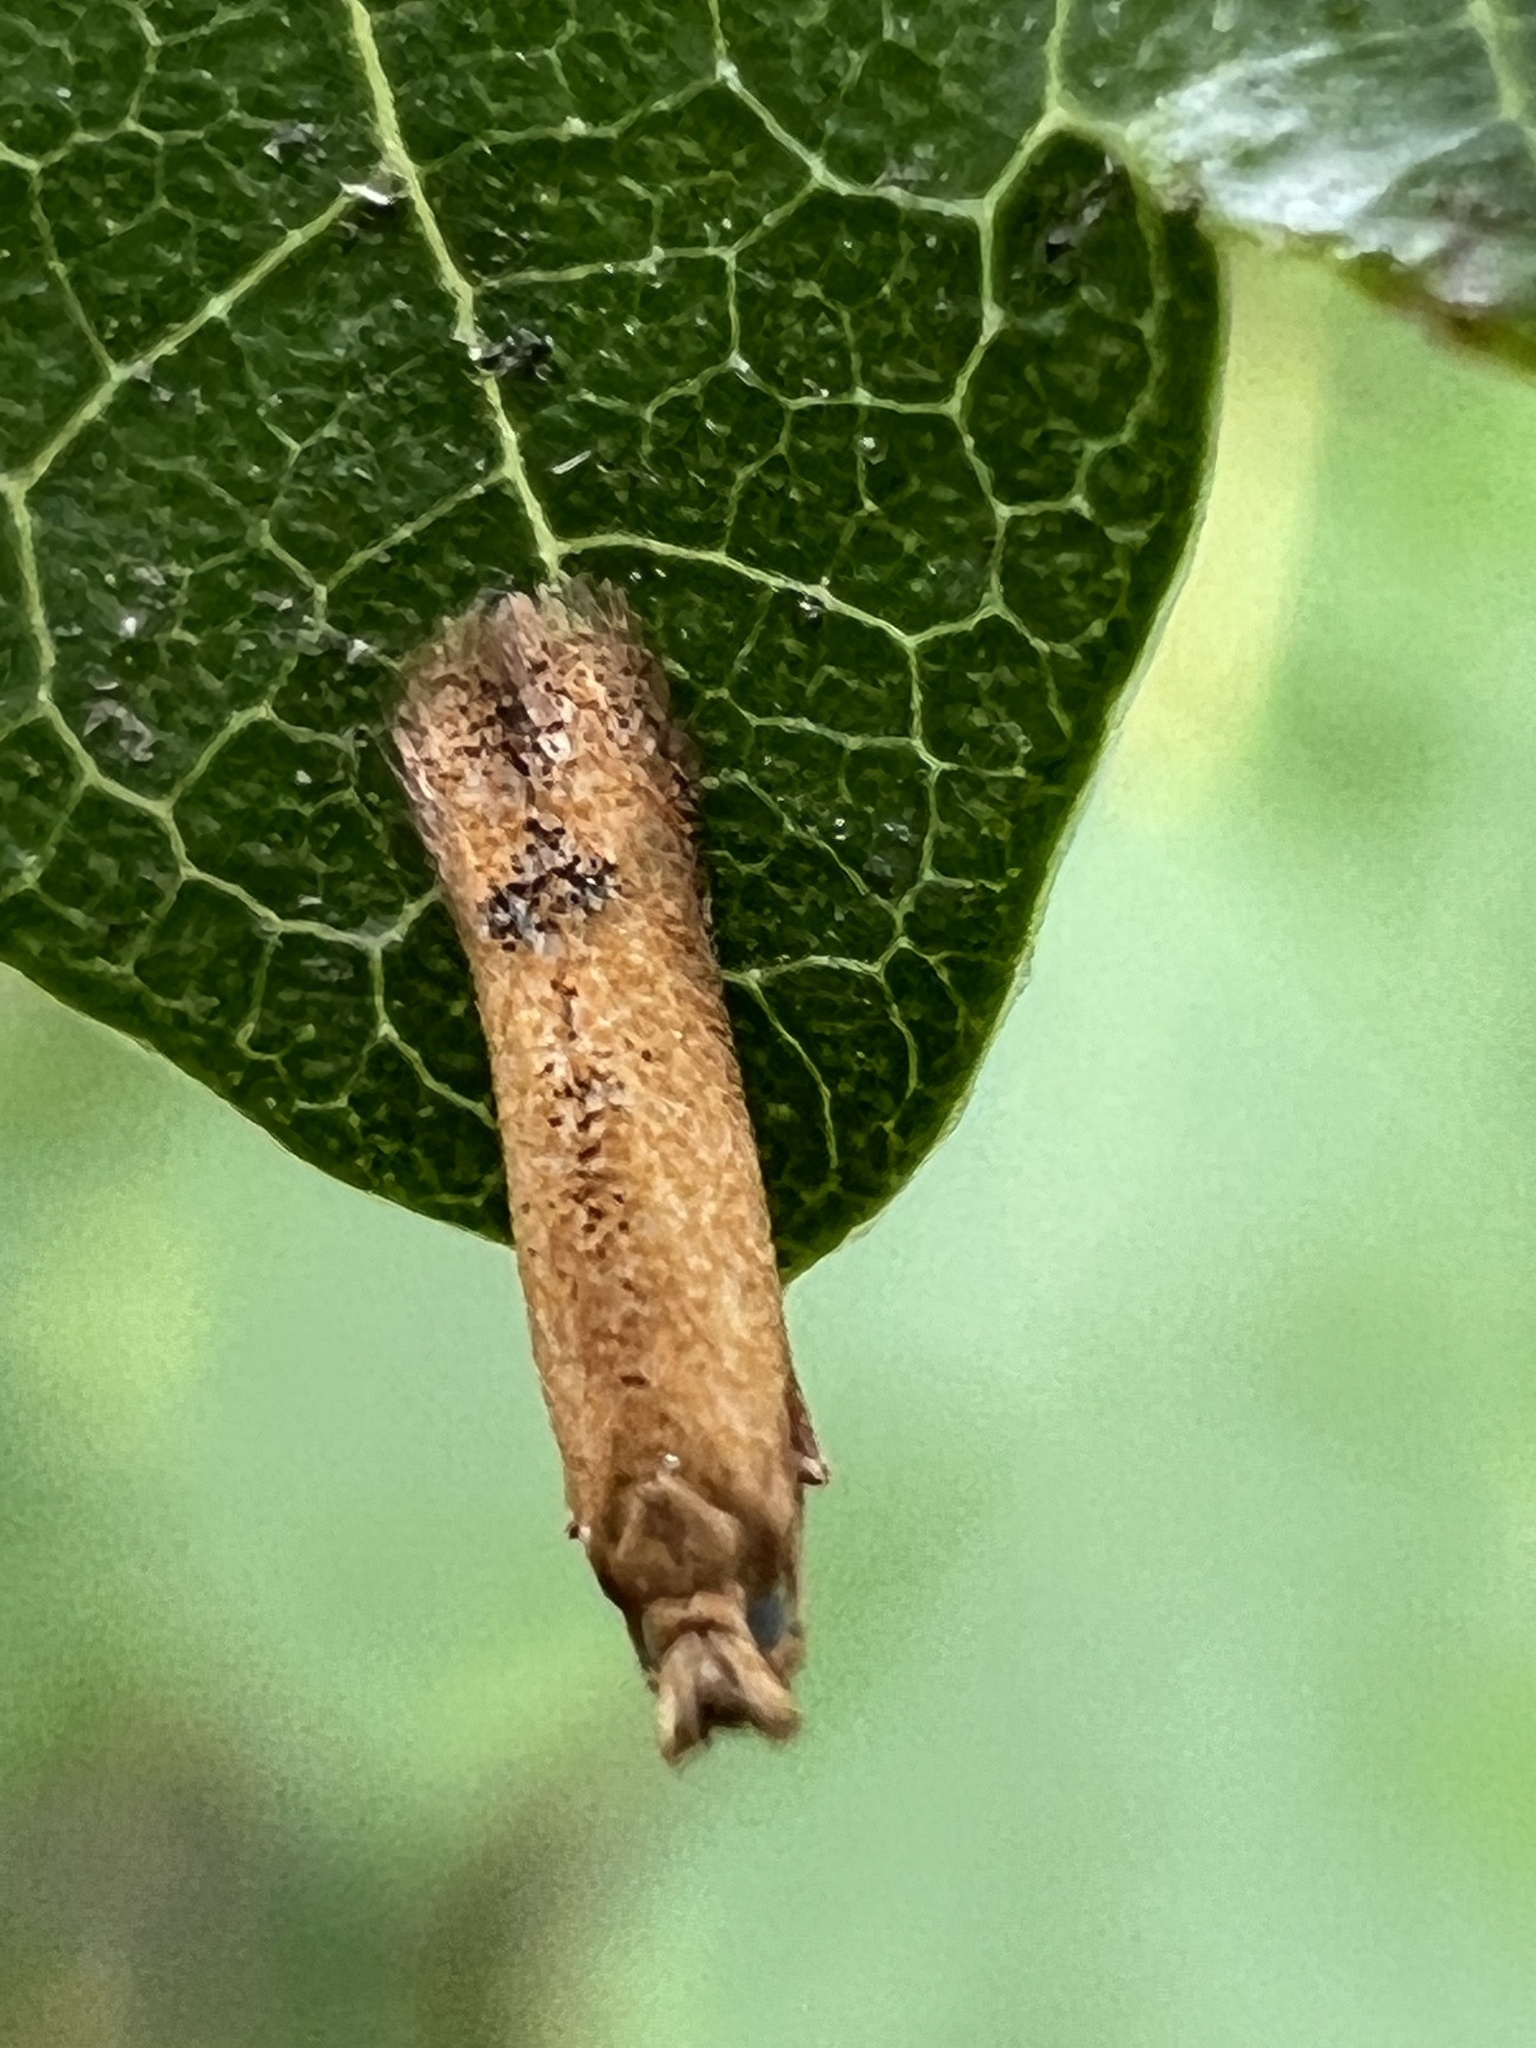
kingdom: Animalia
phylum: Arthropoda
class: Insecta
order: Lepidoptera
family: Tischeriidae
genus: Tischeria
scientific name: Tischeria quercitella
